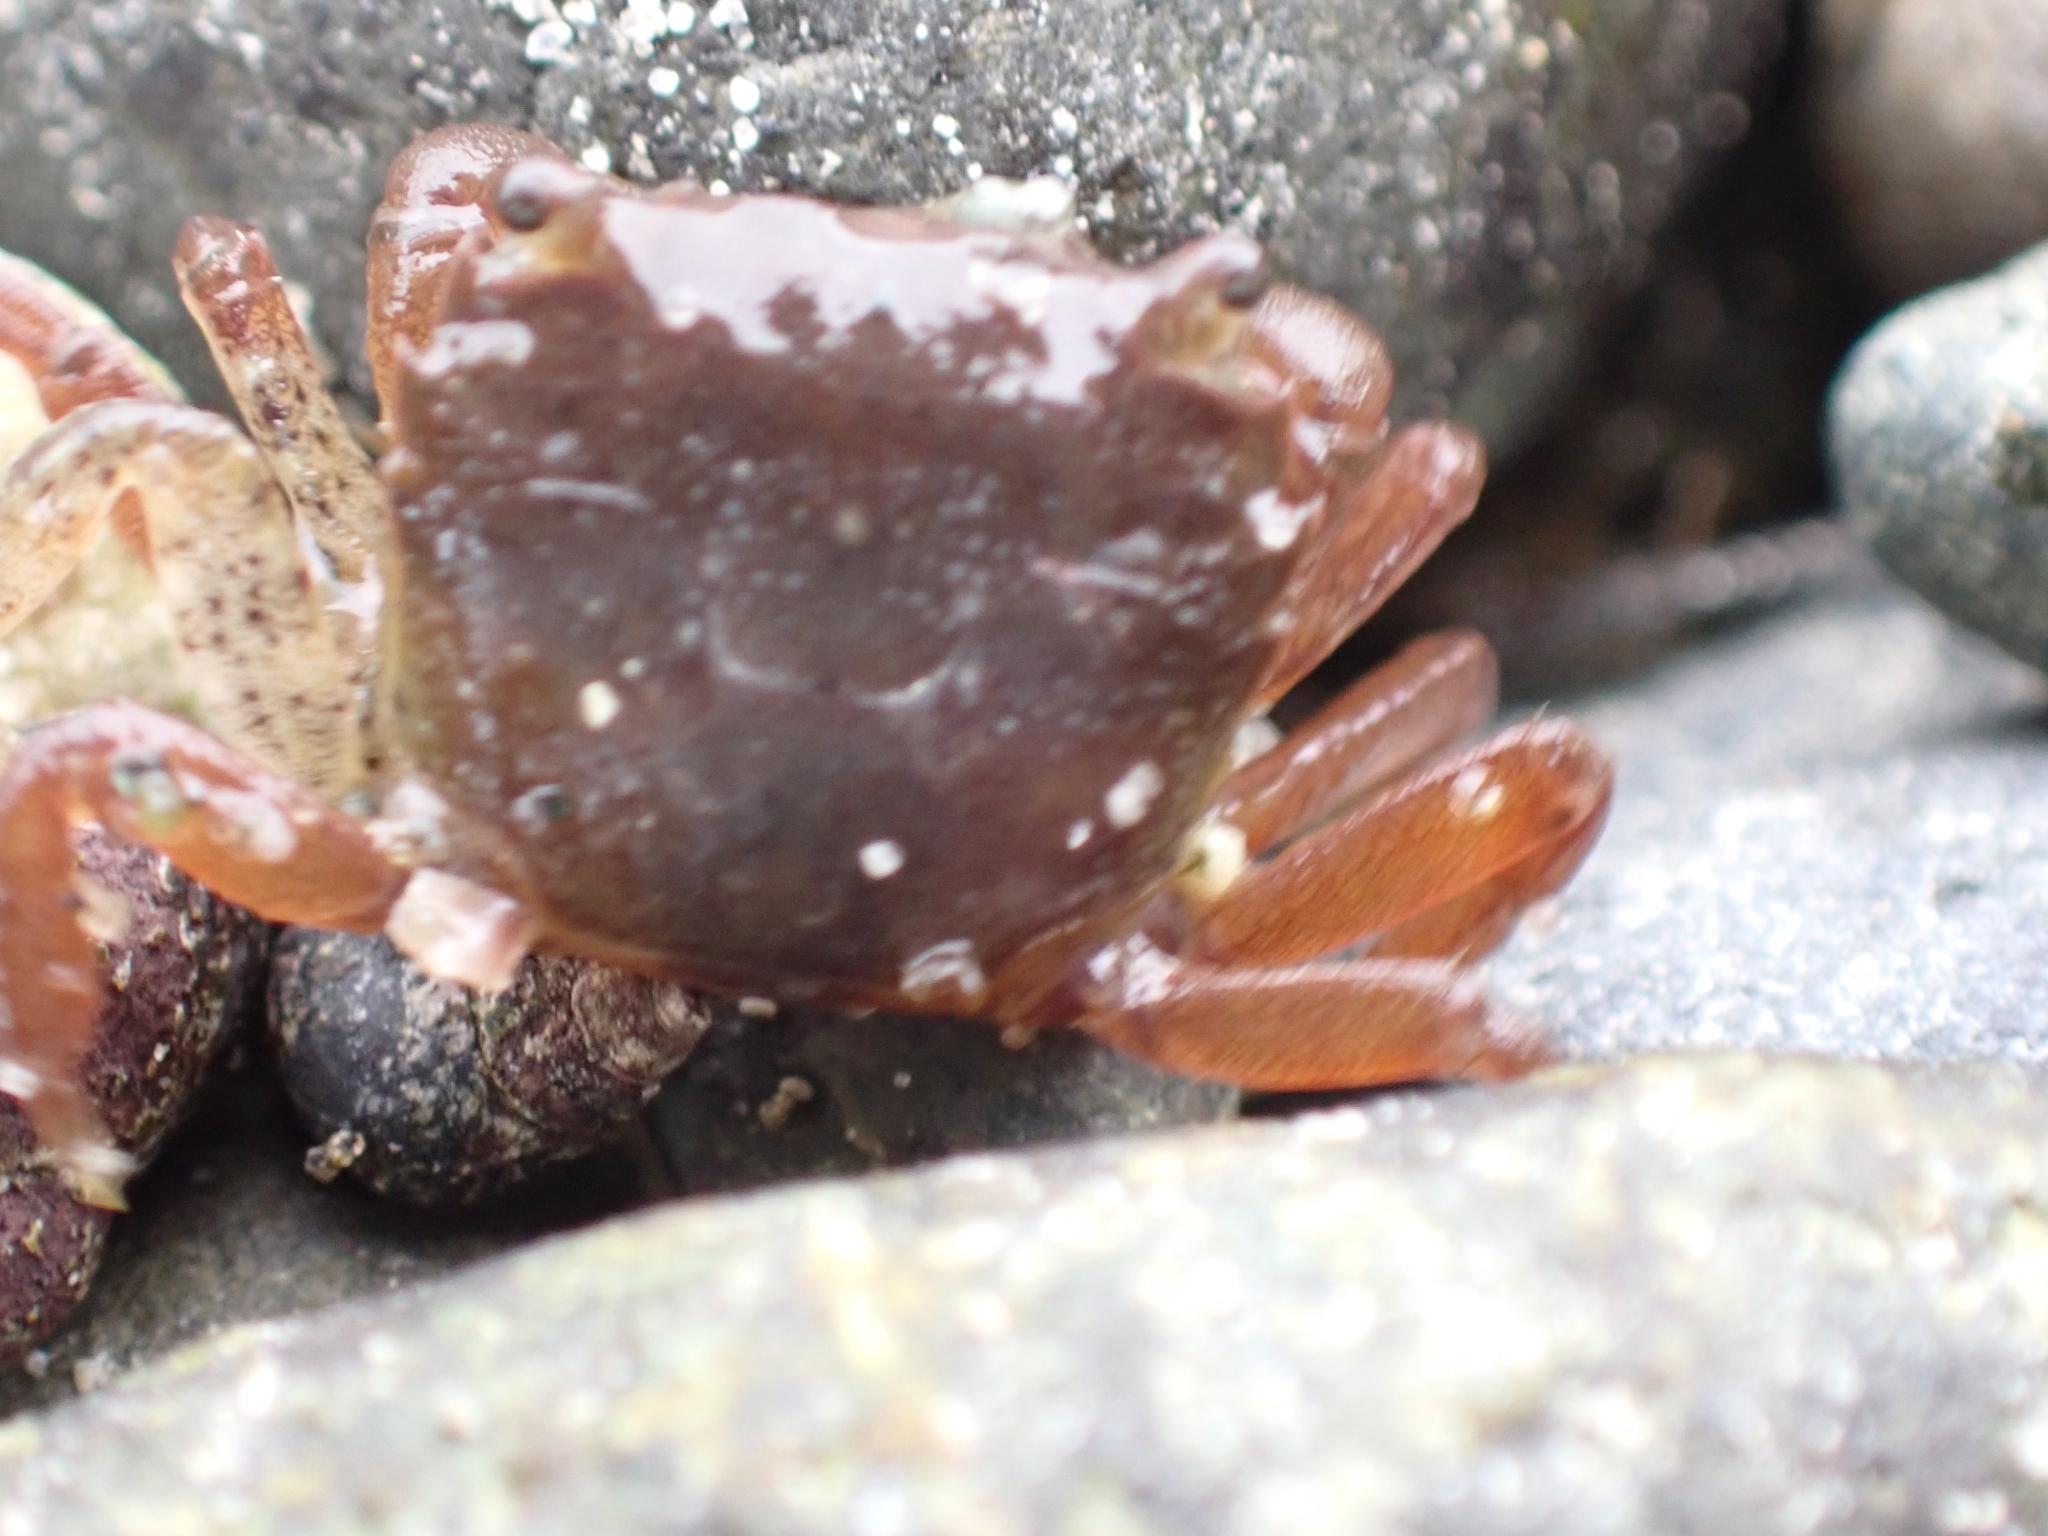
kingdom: Animalia
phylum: Arthropoda
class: Malacostraca
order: Decapoda
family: Varunidae
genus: Hemigrapsus
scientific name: Hemigrapsus oregonensis
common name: Yellow shore crab
